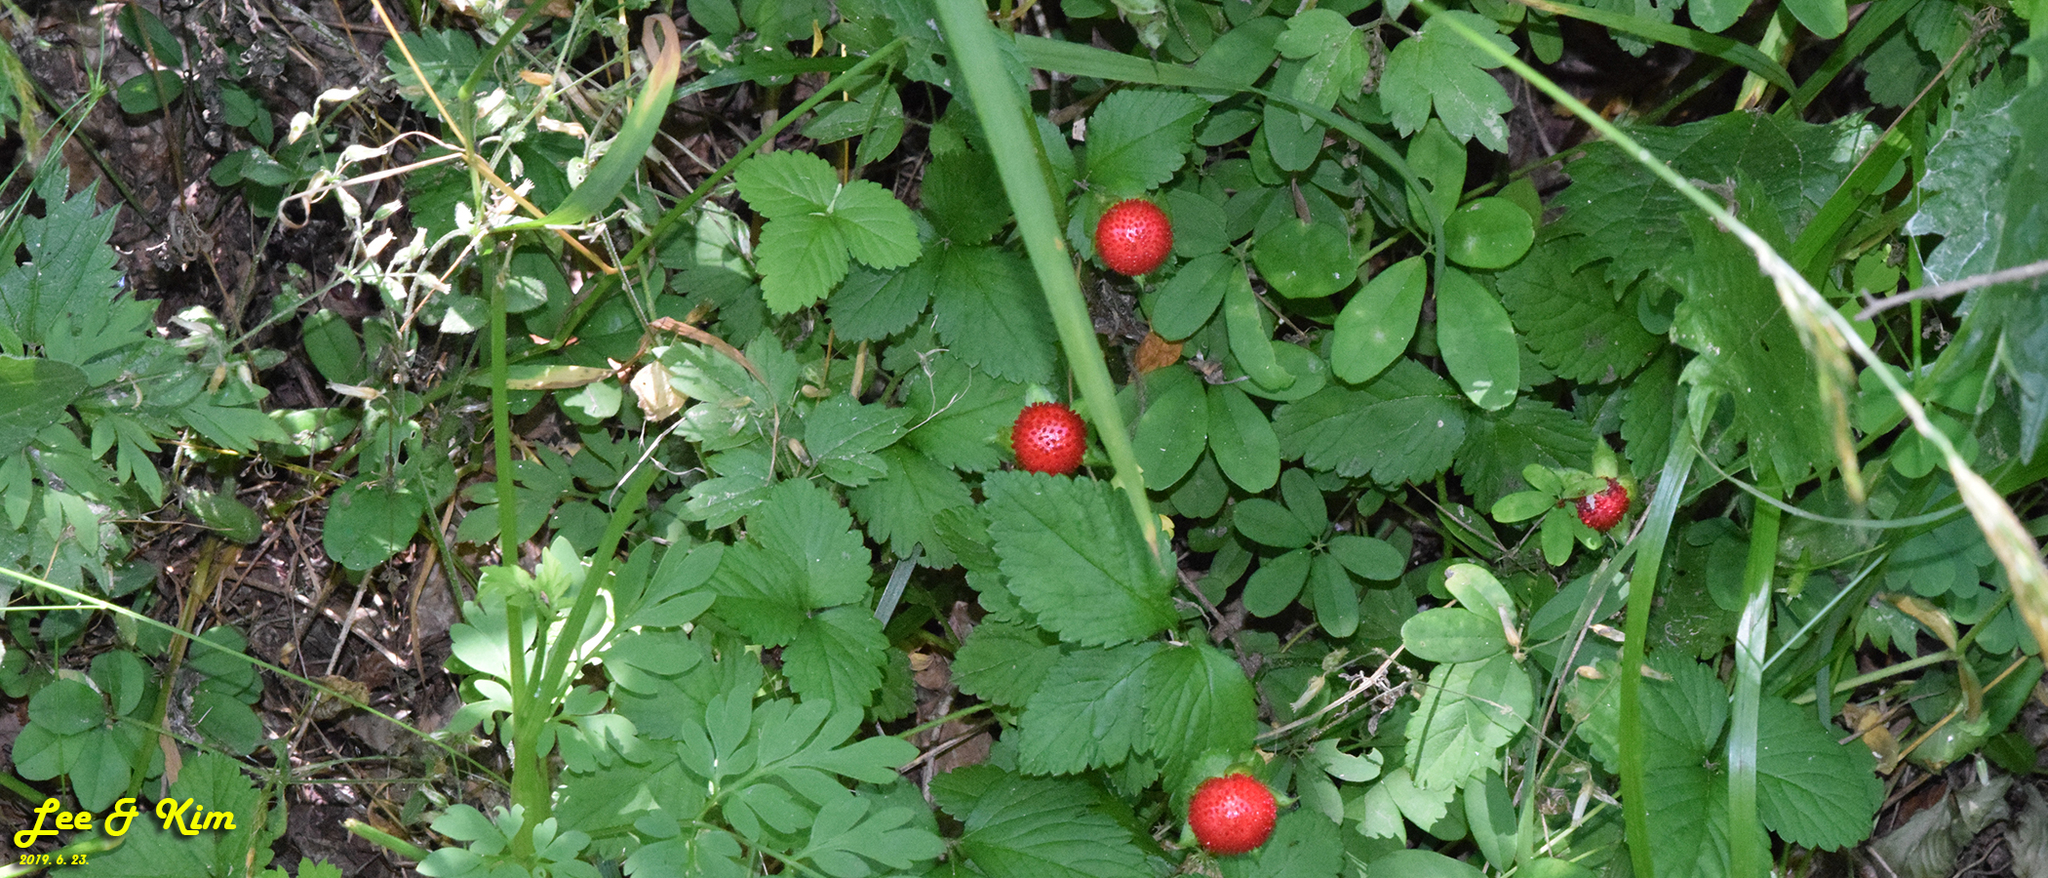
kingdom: Plantae
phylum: Tracheophyta
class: Magnoliopsida
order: Rosales
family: Rosaceae
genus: Potentilla
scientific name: Potentilla indica
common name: Yellow-flowered strawberry
